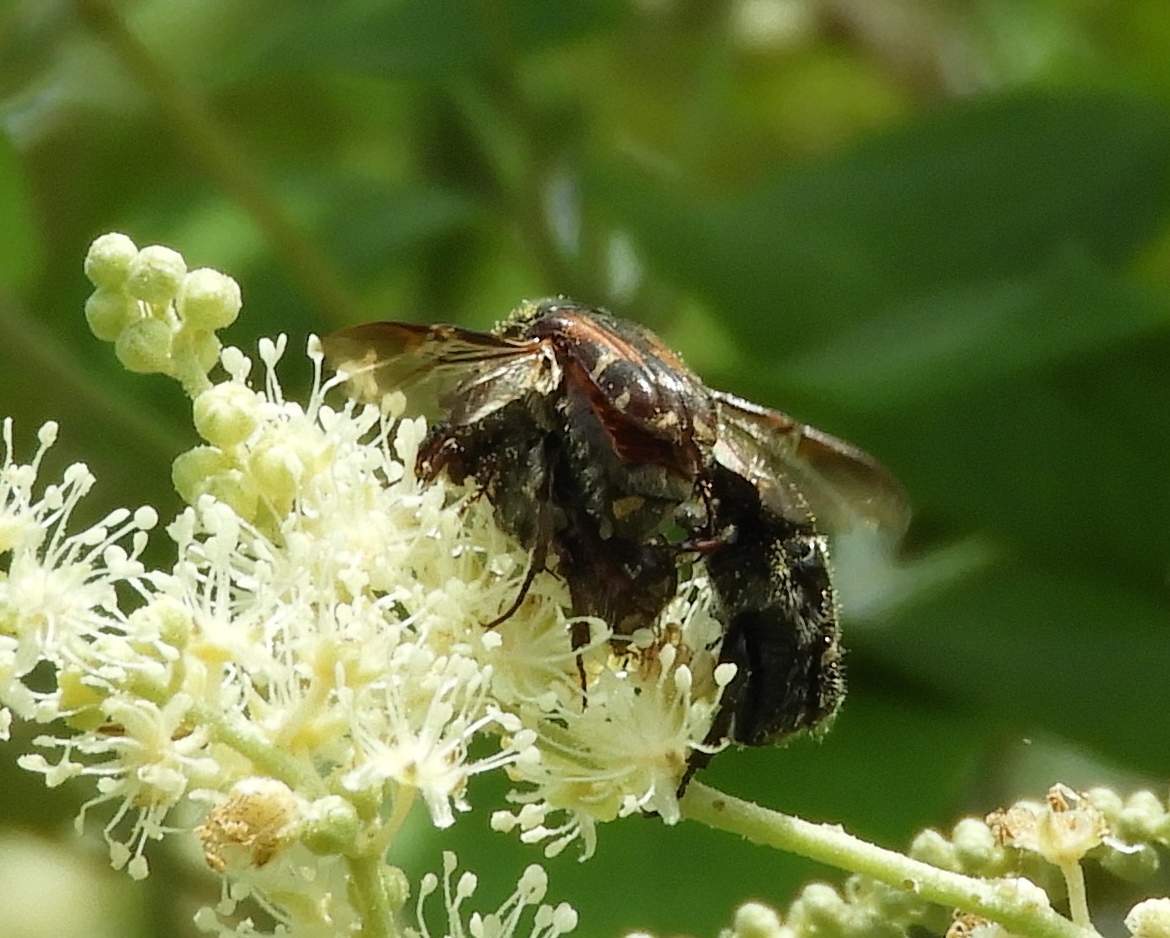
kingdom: Animalia
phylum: Arthropoda
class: Insecta
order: Coleoptera
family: Scarabaeidae
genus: Euphoria
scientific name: Euphoria pulchella
